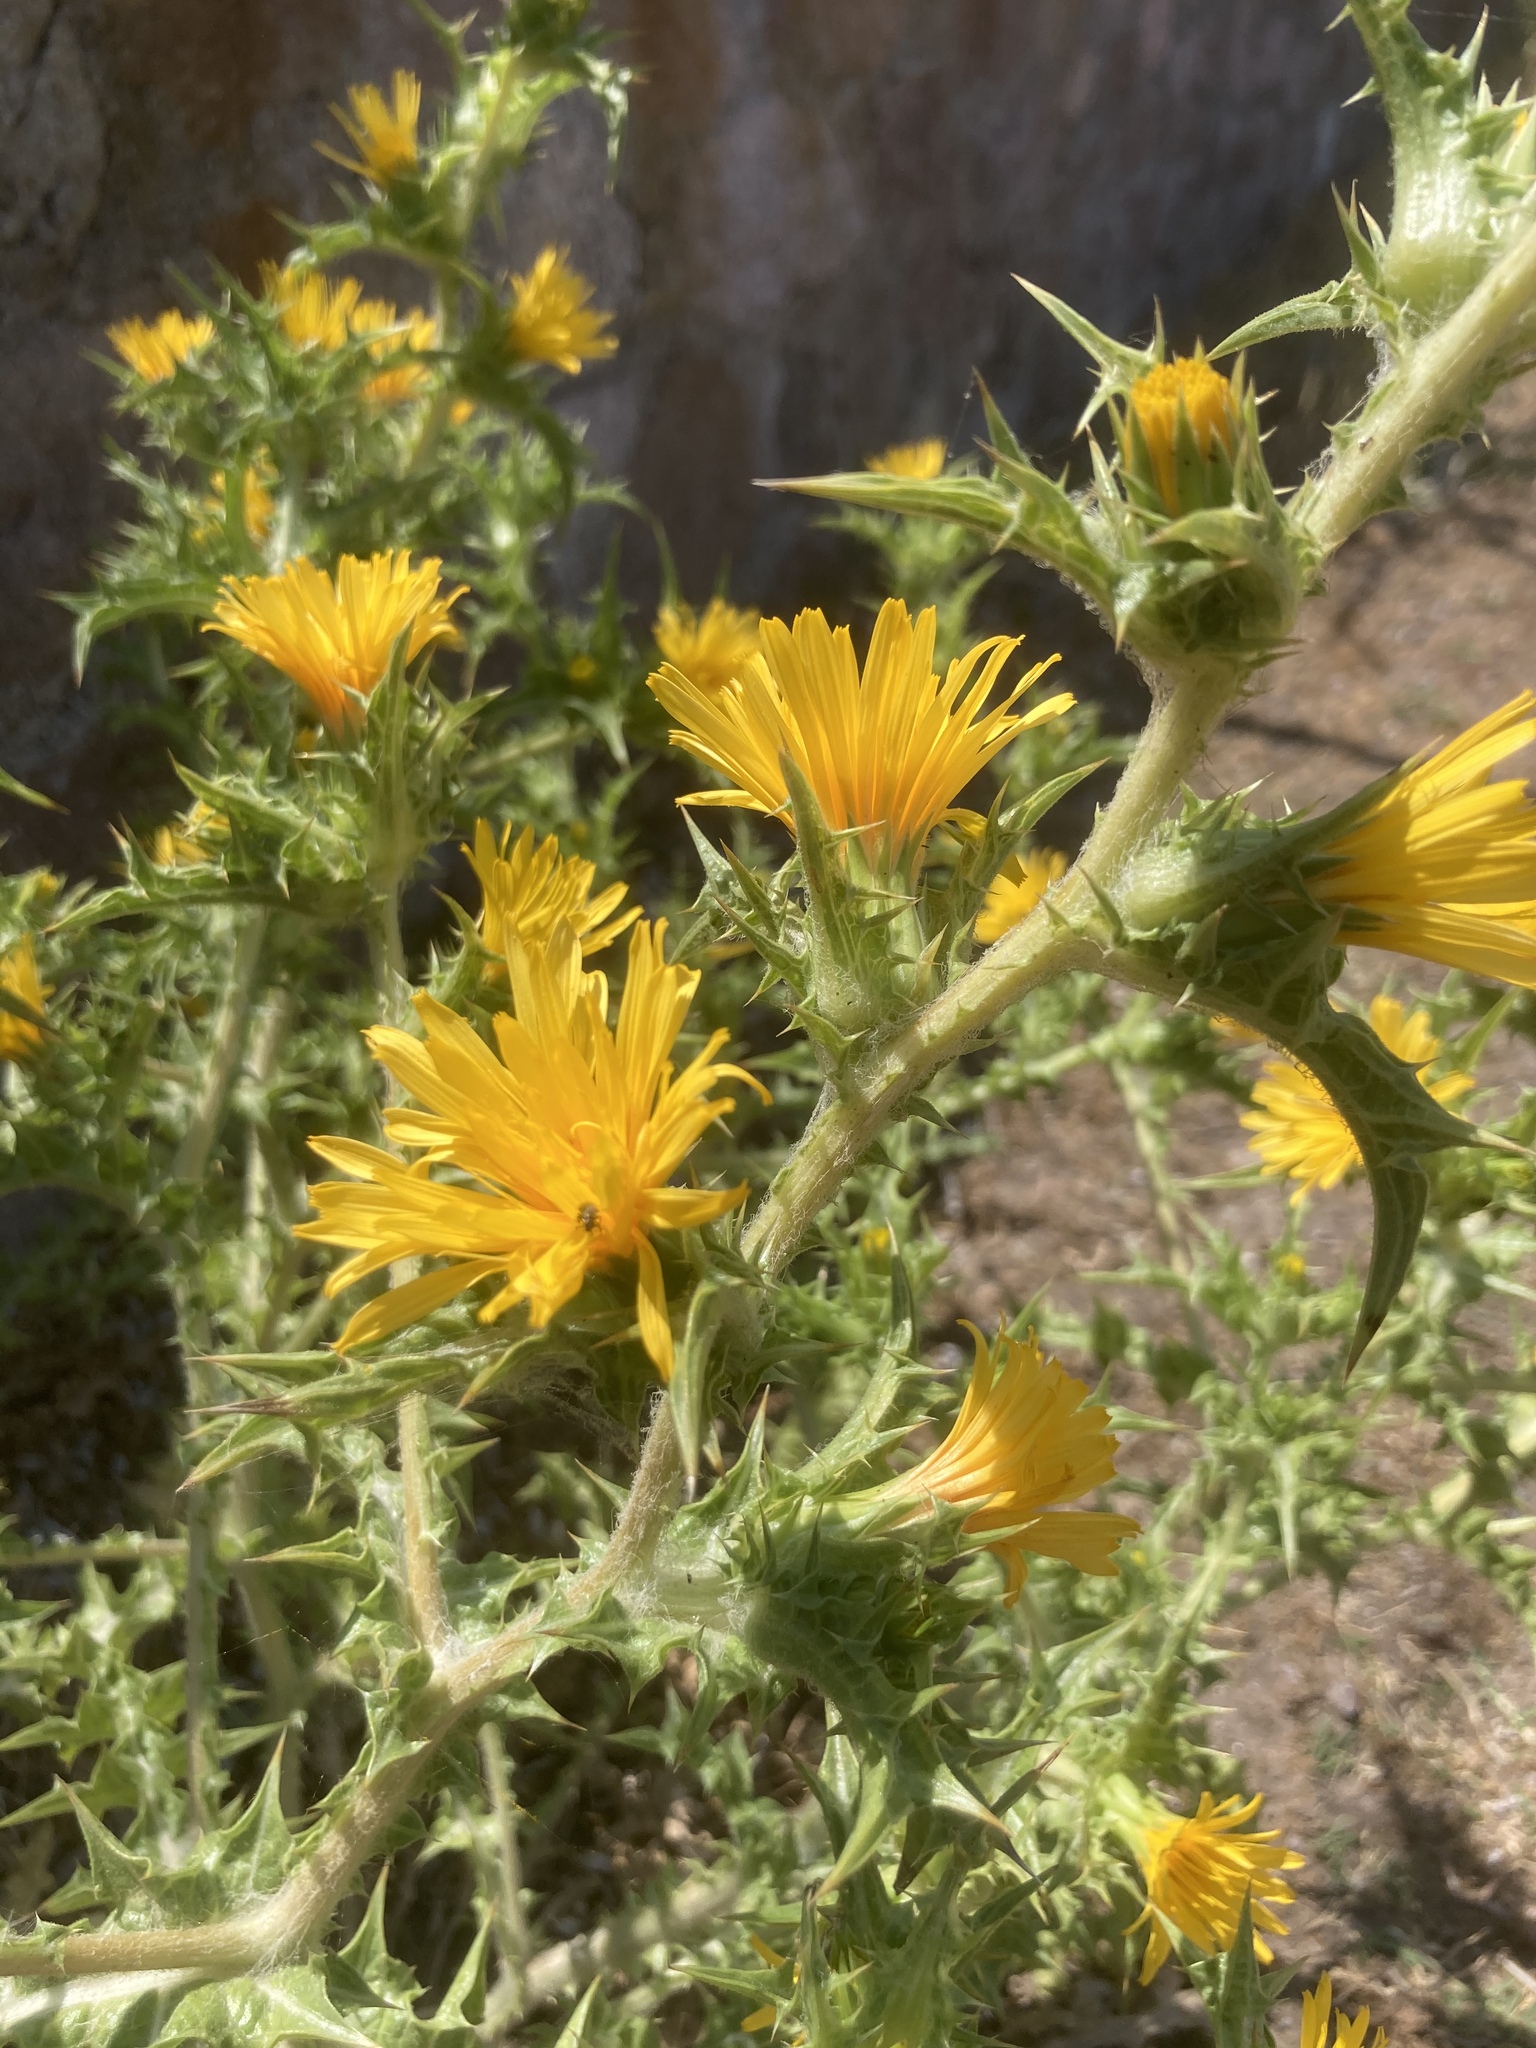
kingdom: Plantae
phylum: Tracheophyta
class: Magnoliopsida
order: Asterales
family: Asteraceae
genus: Scolymus
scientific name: Scolymus hispanicus
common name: Golden thistle
